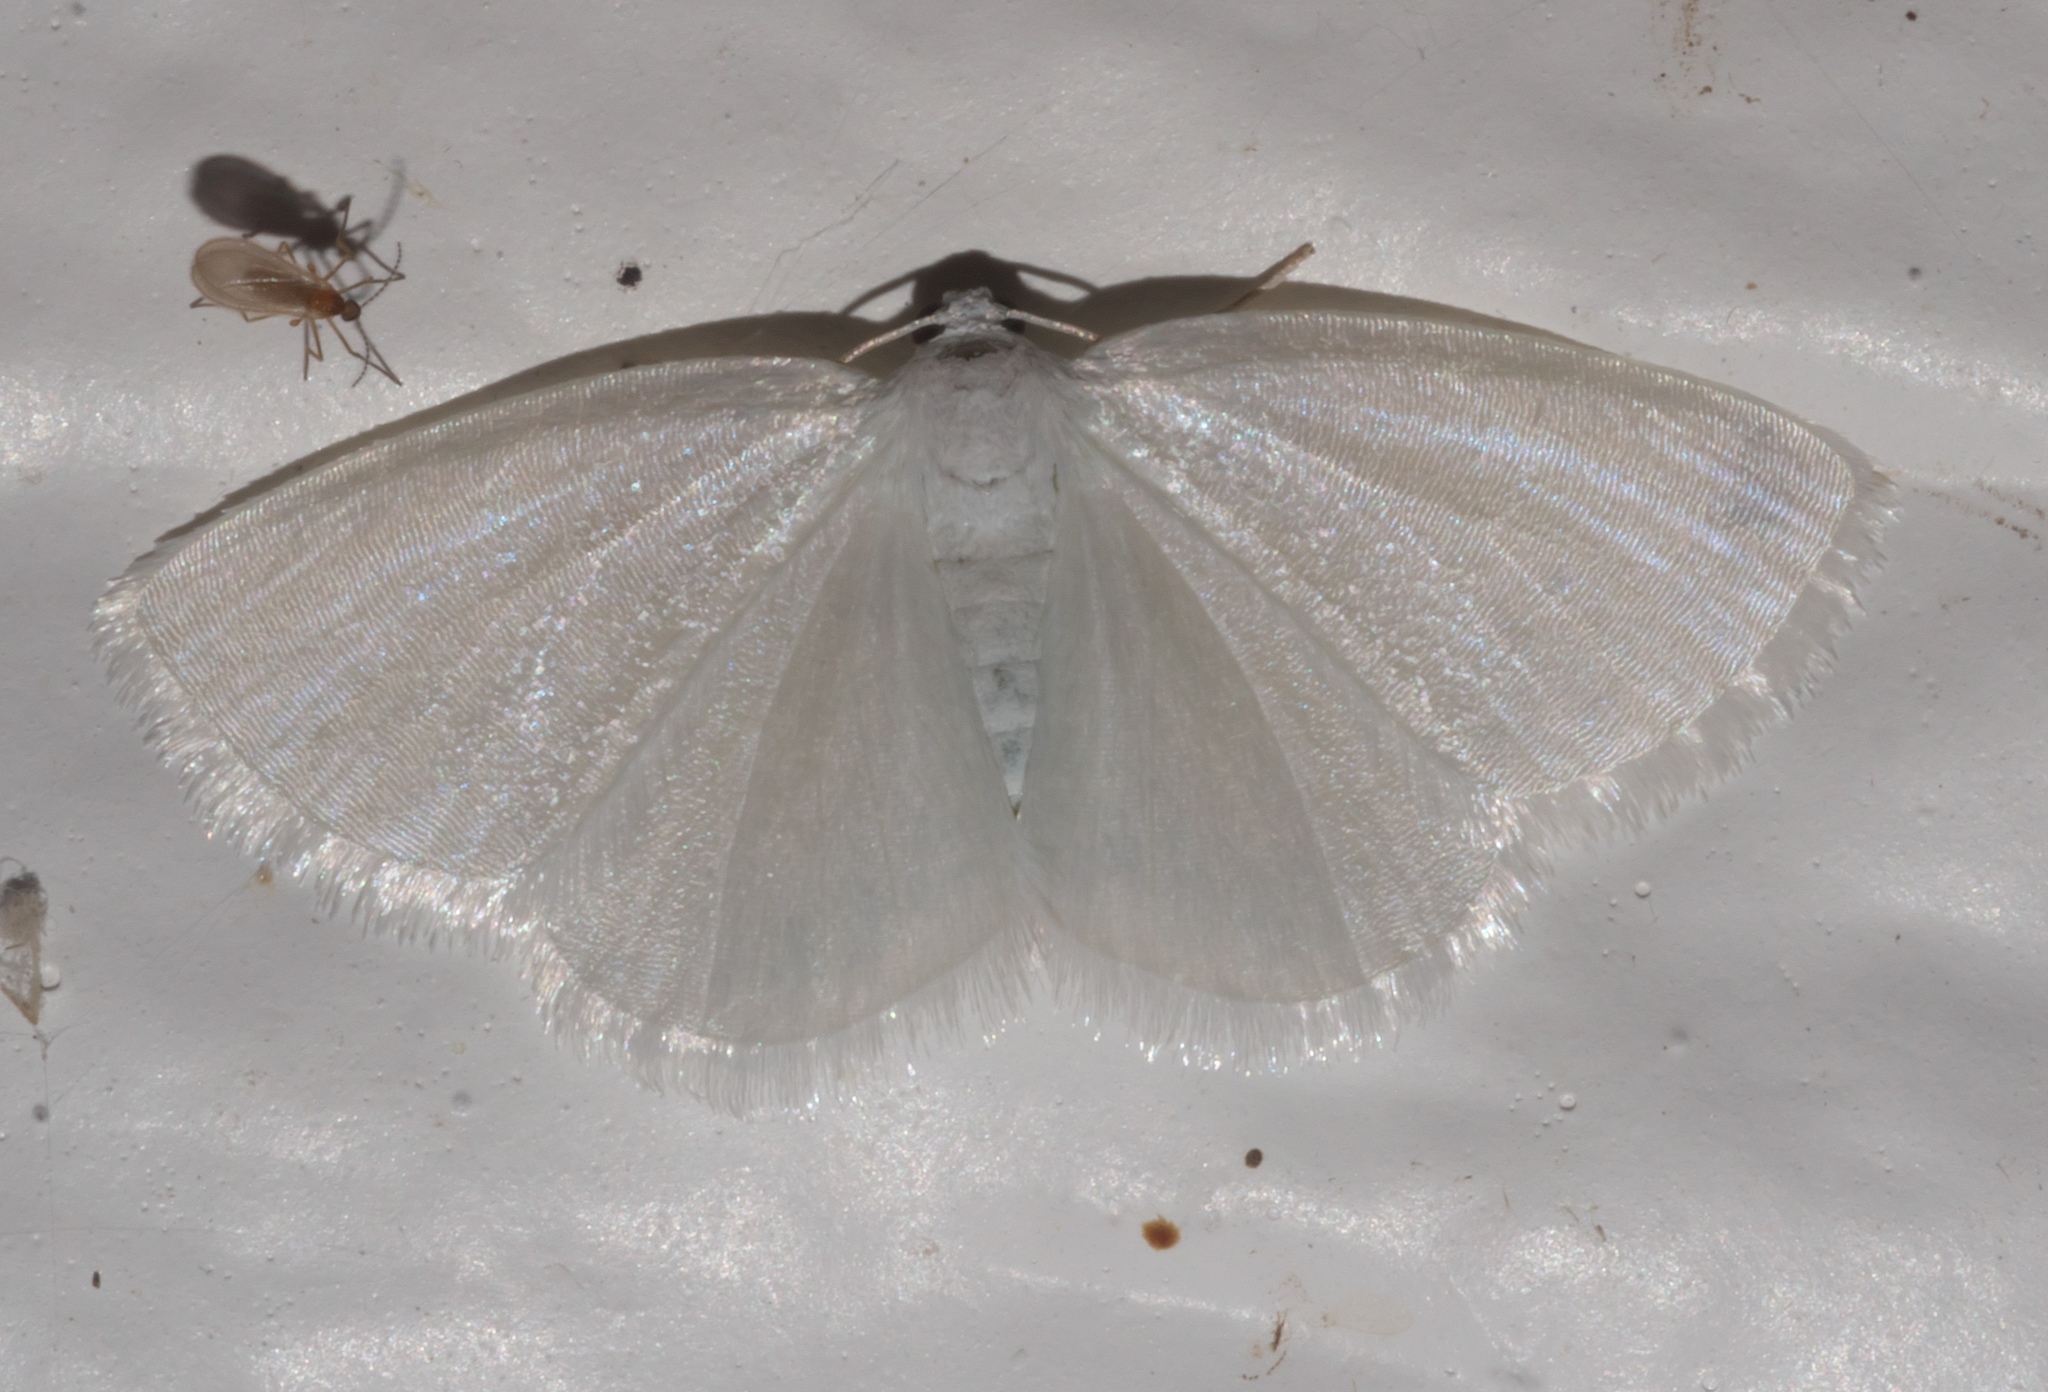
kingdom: Animalia
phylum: Arthropoda
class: Insecta
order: Lepidoptera
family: Geometridae
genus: Lomographa
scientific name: Lomographa vestaliata
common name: White spring moth
